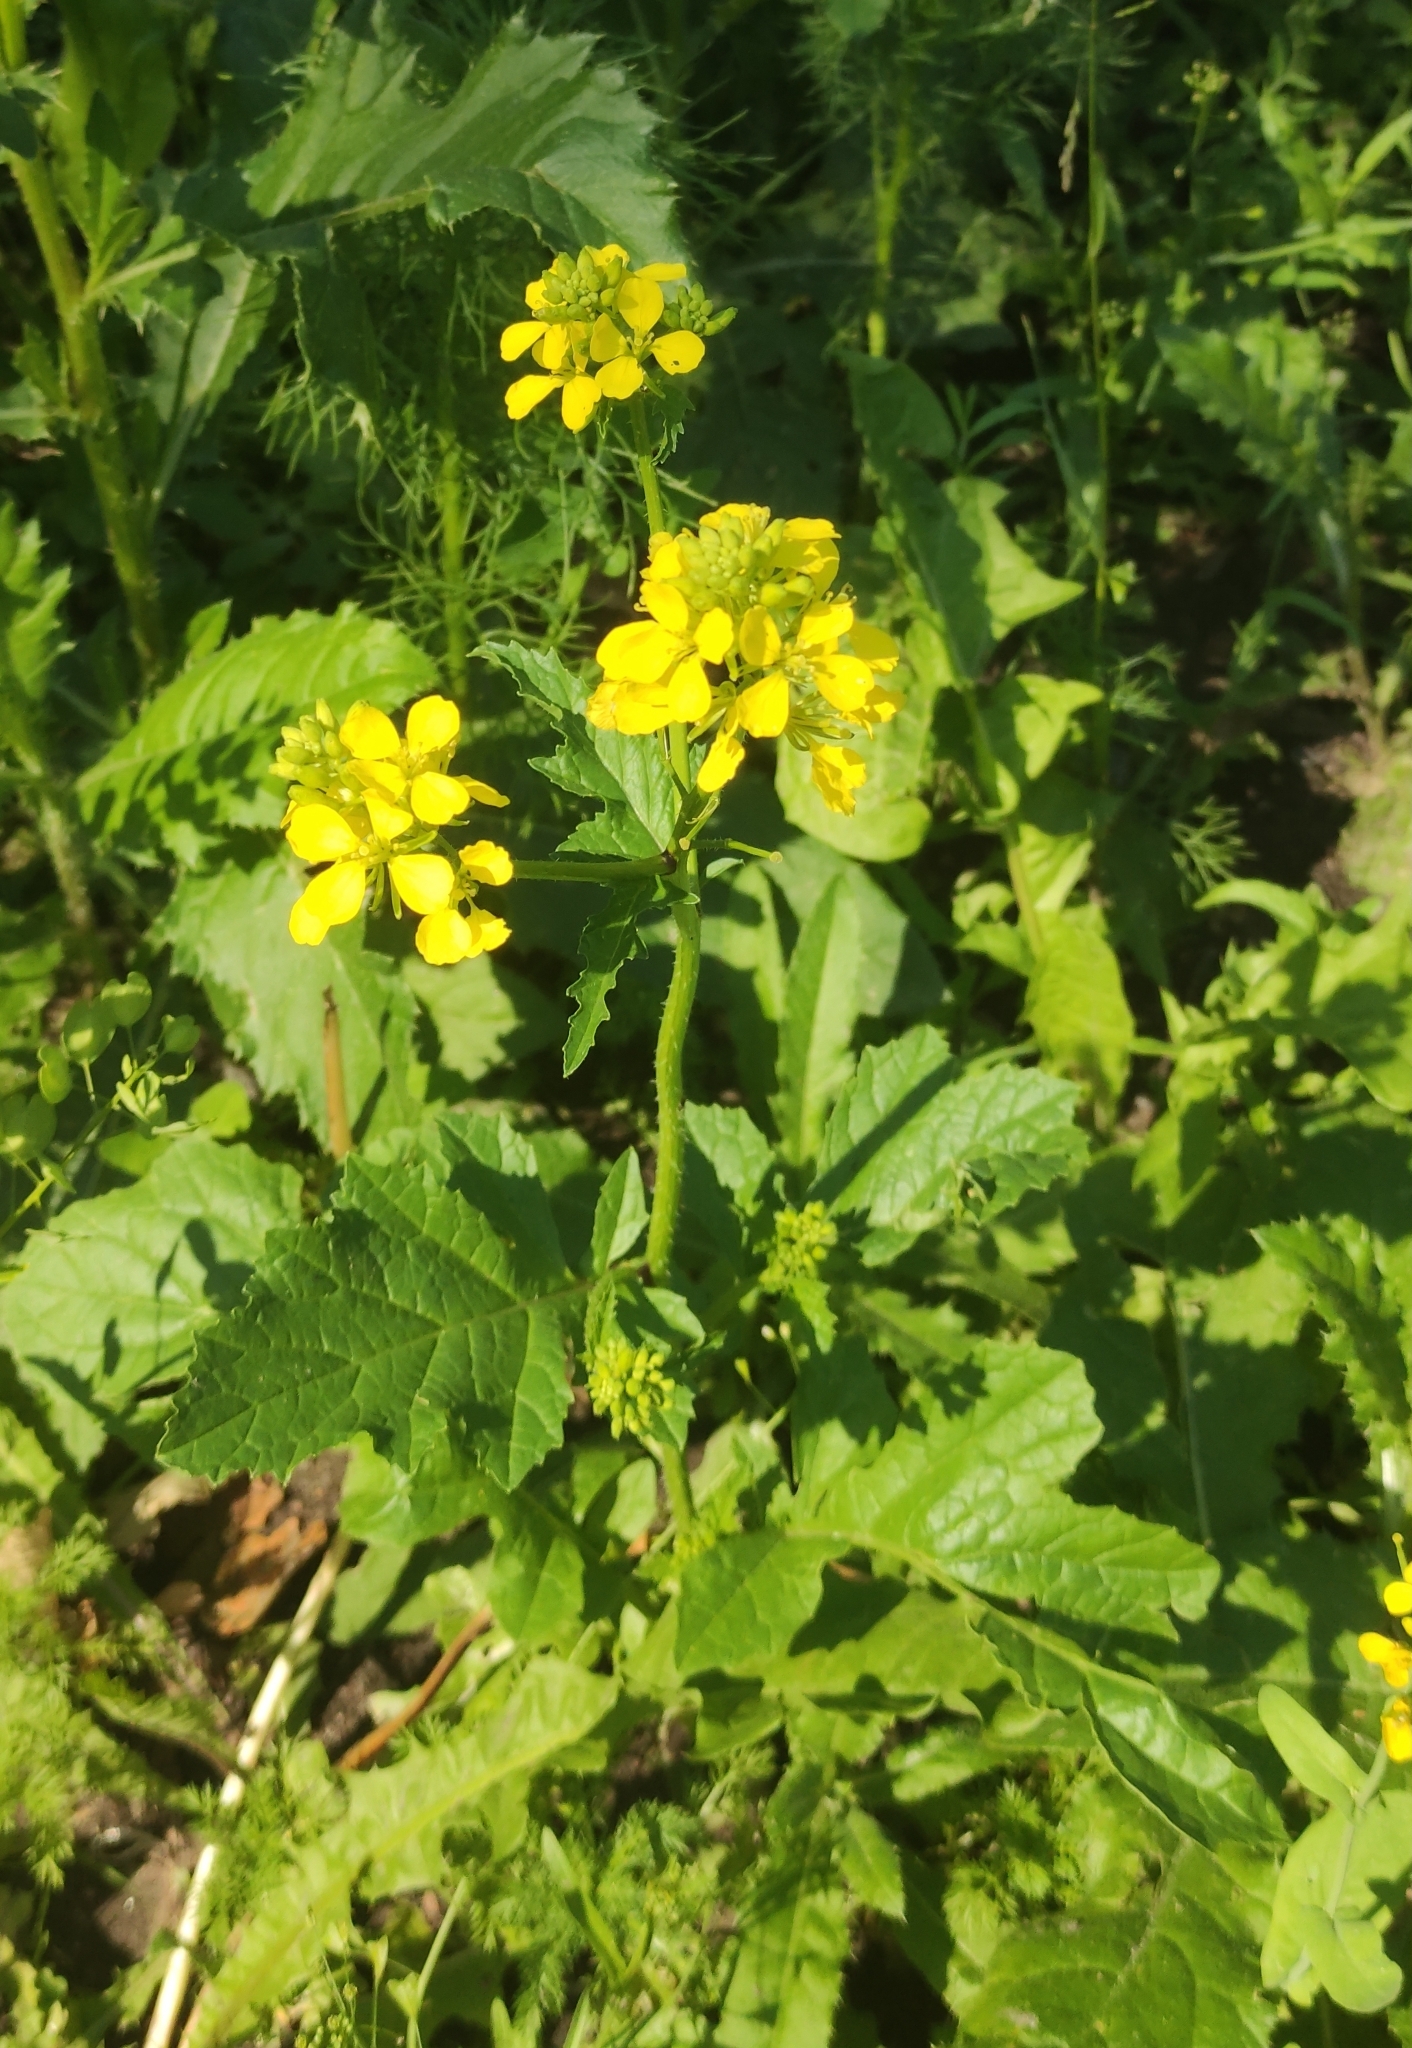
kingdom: Plantae
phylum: Tracheophyta
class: Magnoliopsida
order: Brassicales
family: Brassicaceae
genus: Sinapis
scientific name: Sinapis arvensis
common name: Charlock
